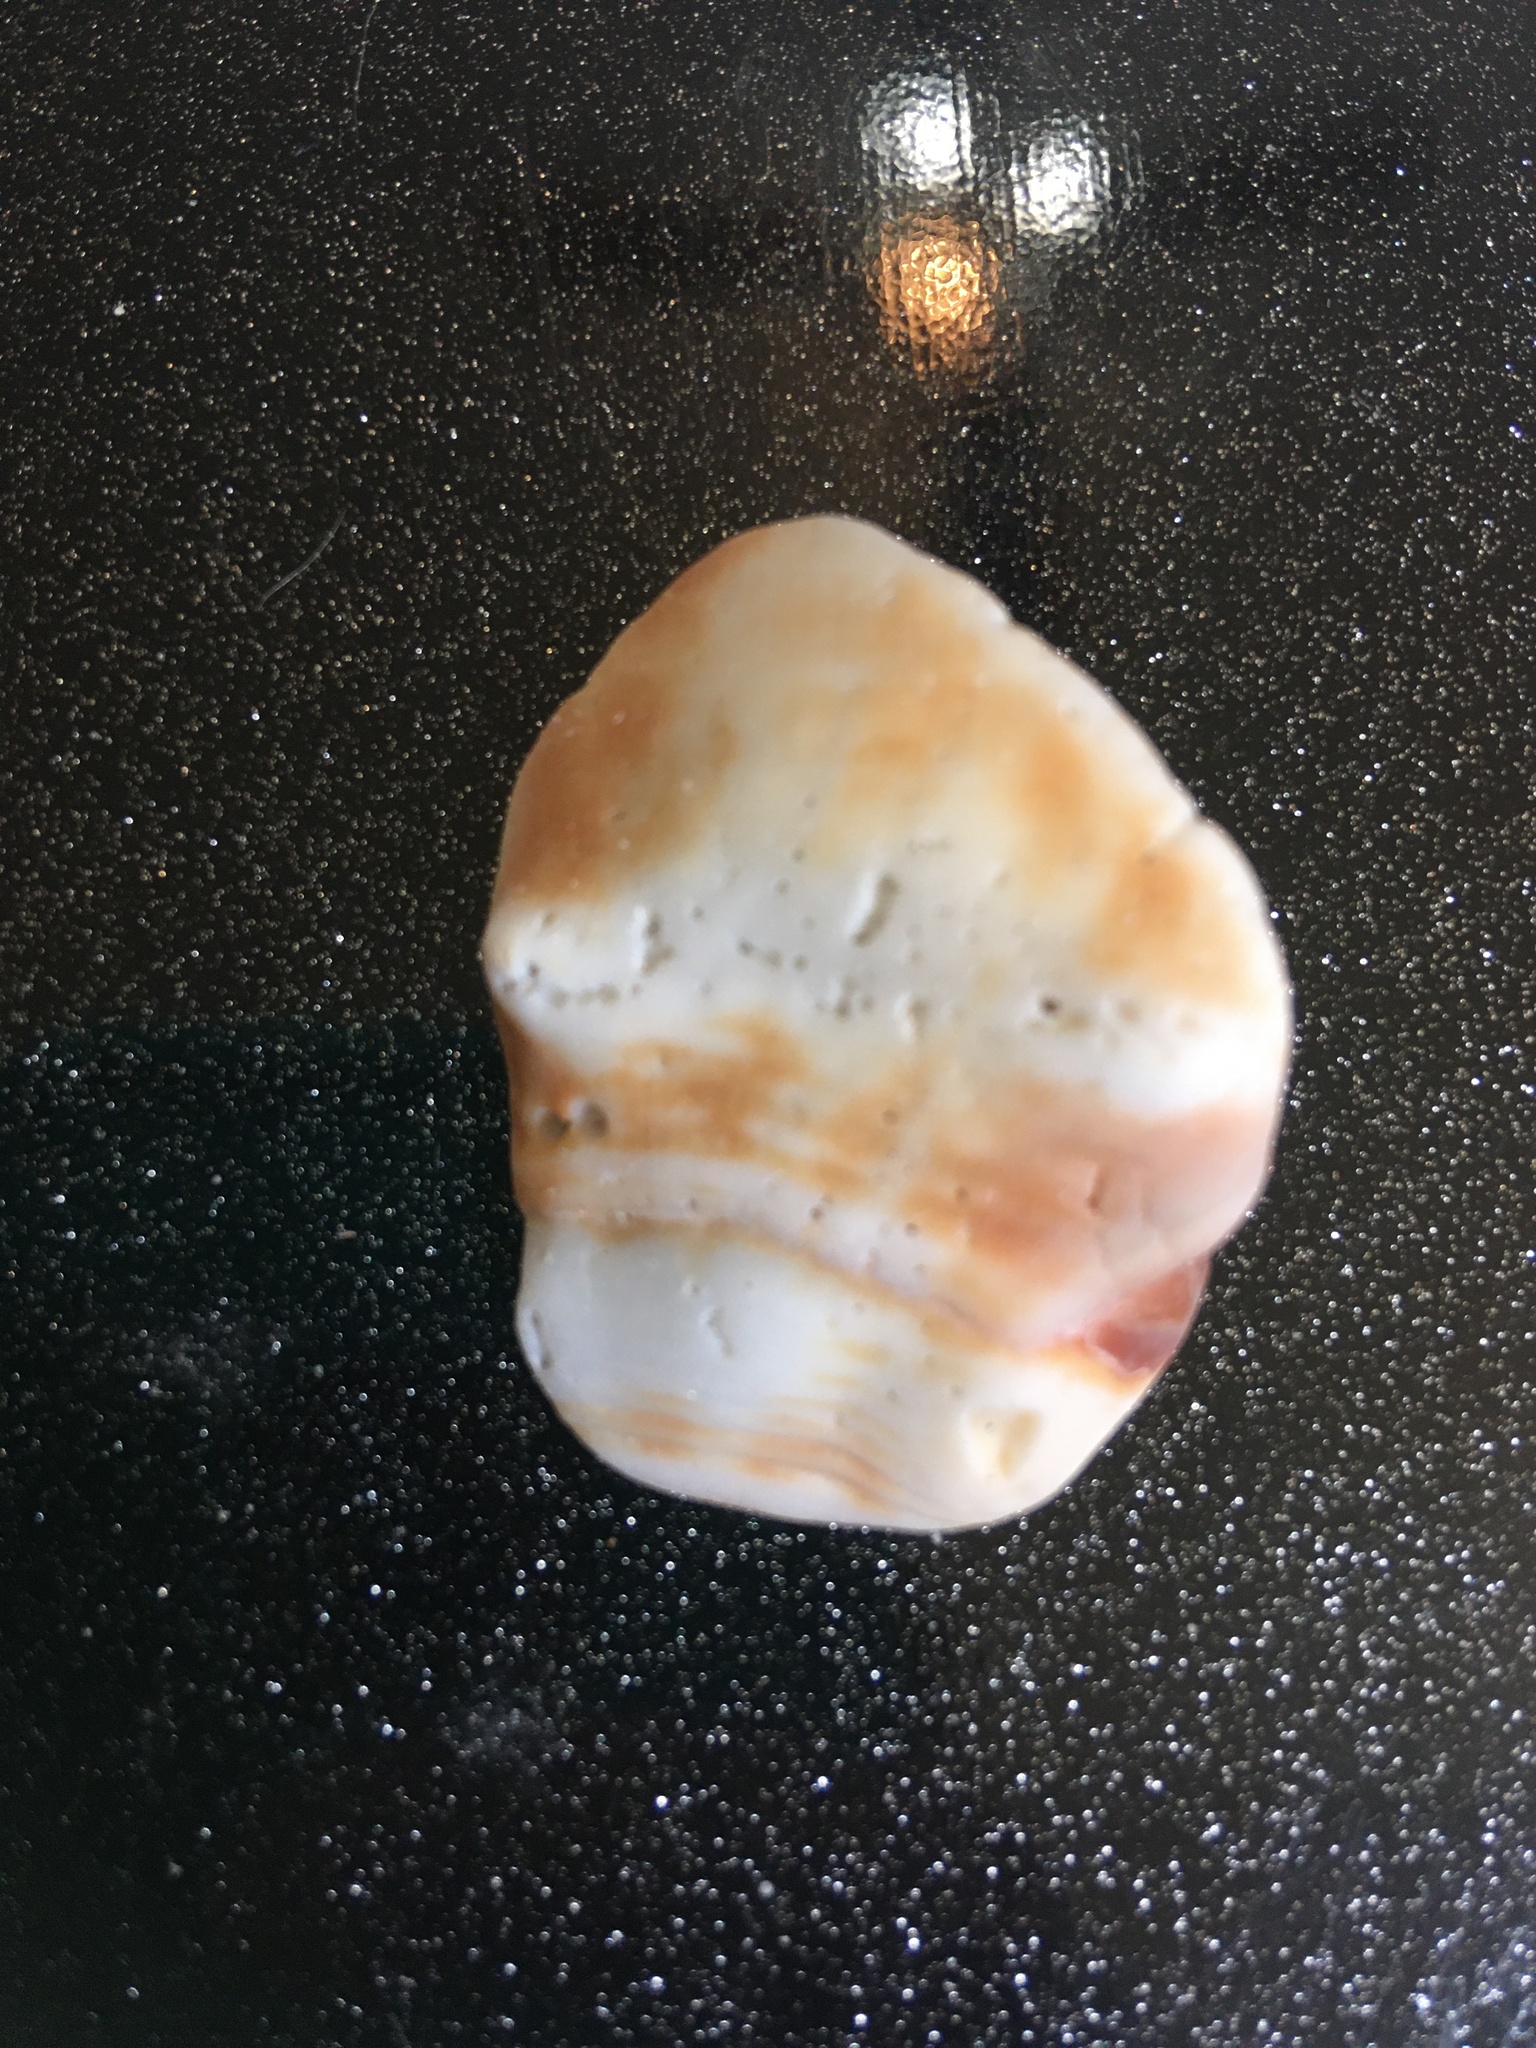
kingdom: Animalia
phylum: Mollusca
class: Gastropoda
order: Littorinimorpha
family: Strombidae
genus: Strombus
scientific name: Strombus alatus
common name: Florida fighting conch
